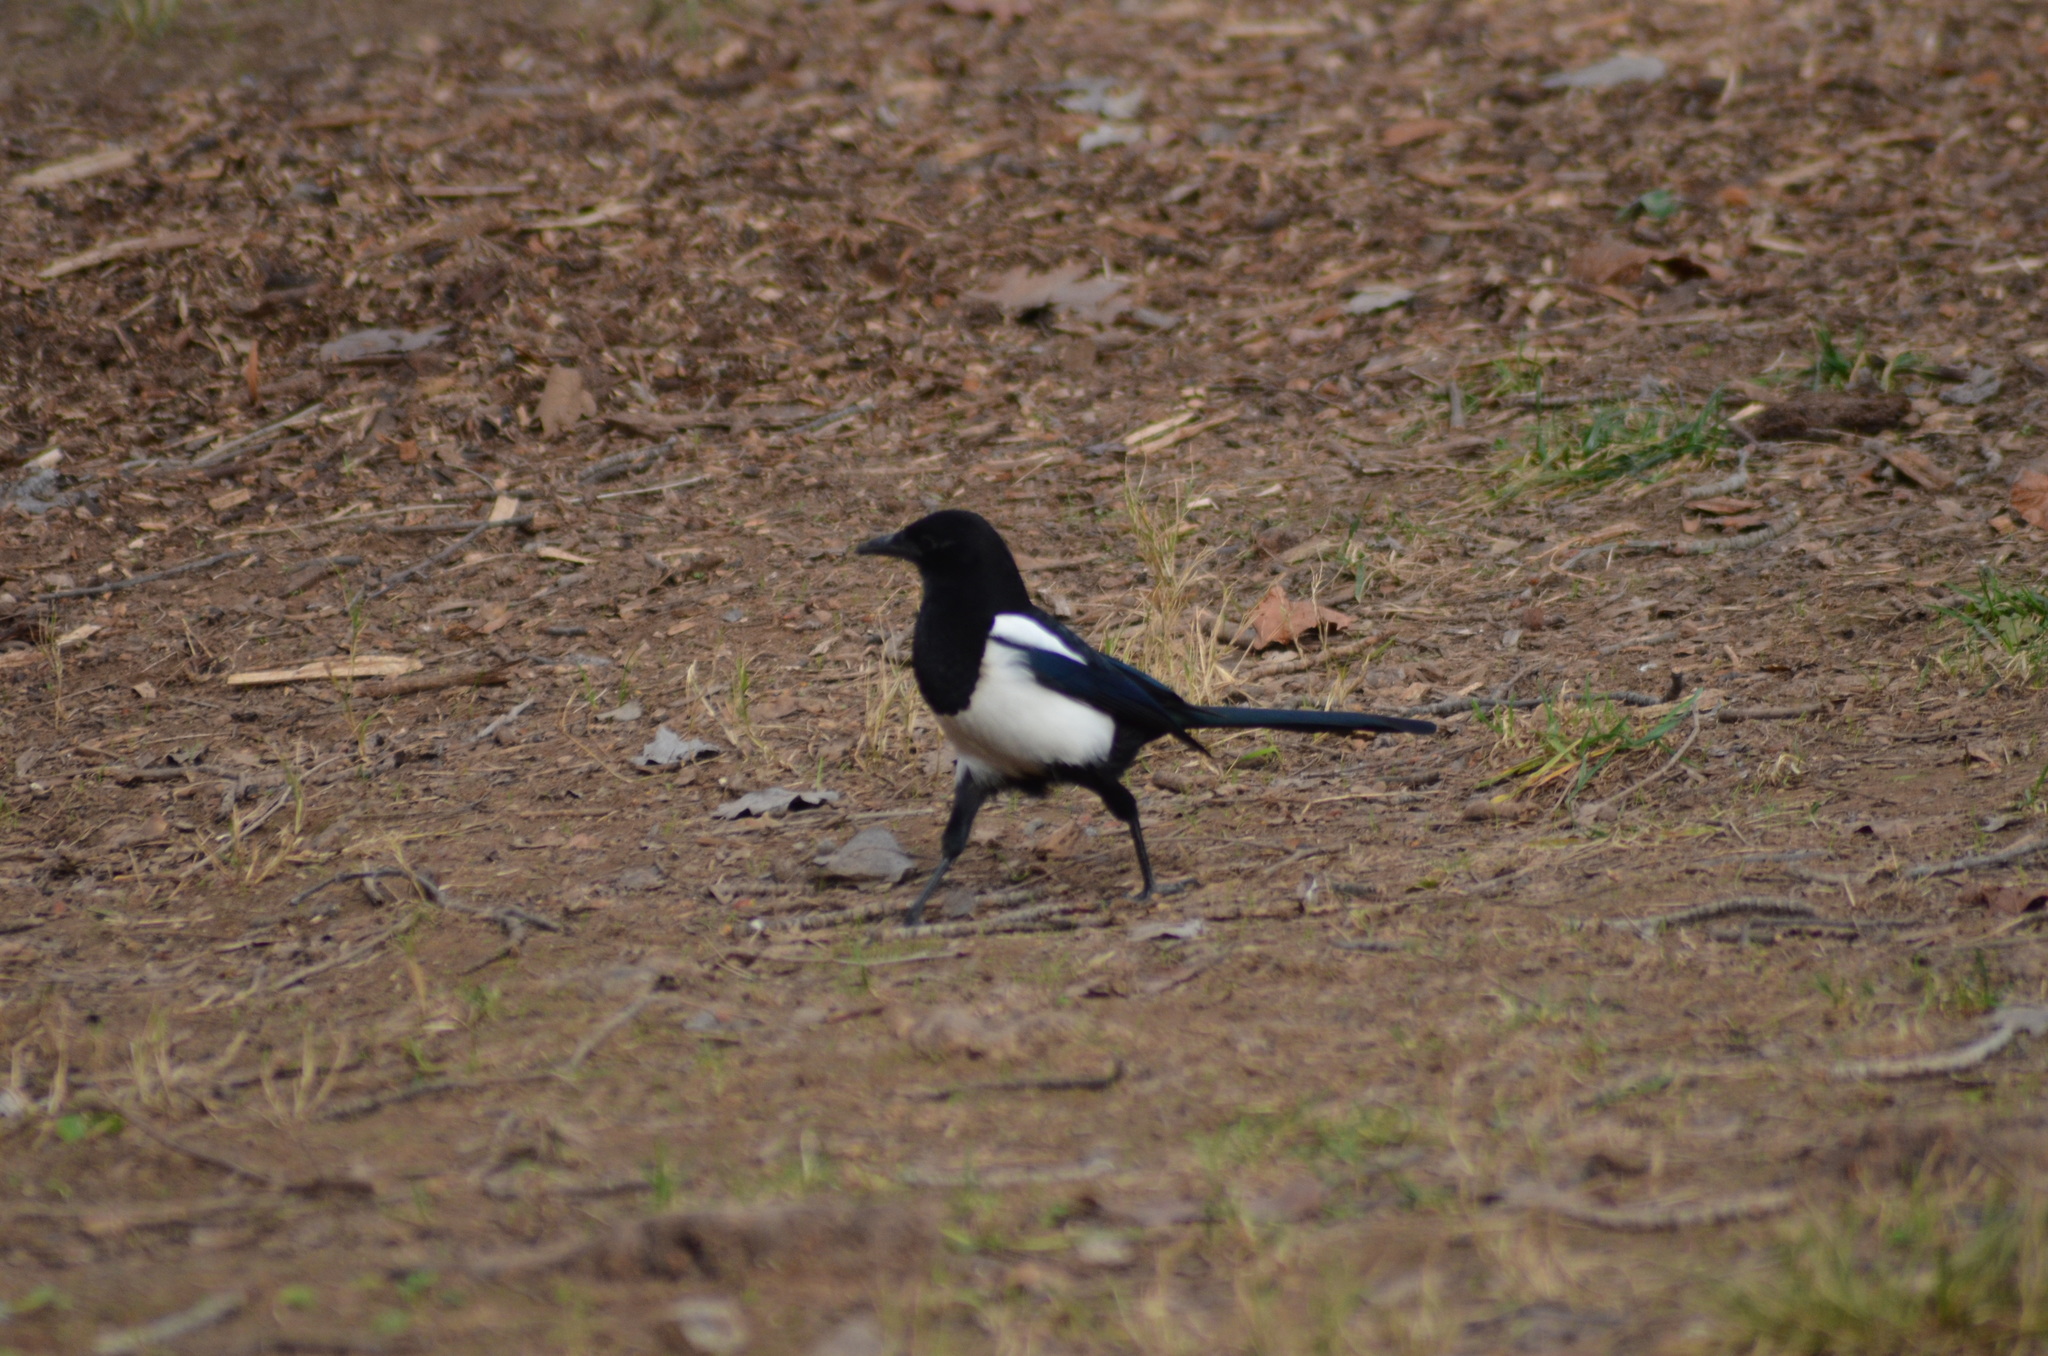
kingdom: Animalia
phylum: Chordata
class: Aves
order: Passeriformes
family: Corvidae
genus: Pica
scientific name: Pica pica
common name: Eurasian magpie
